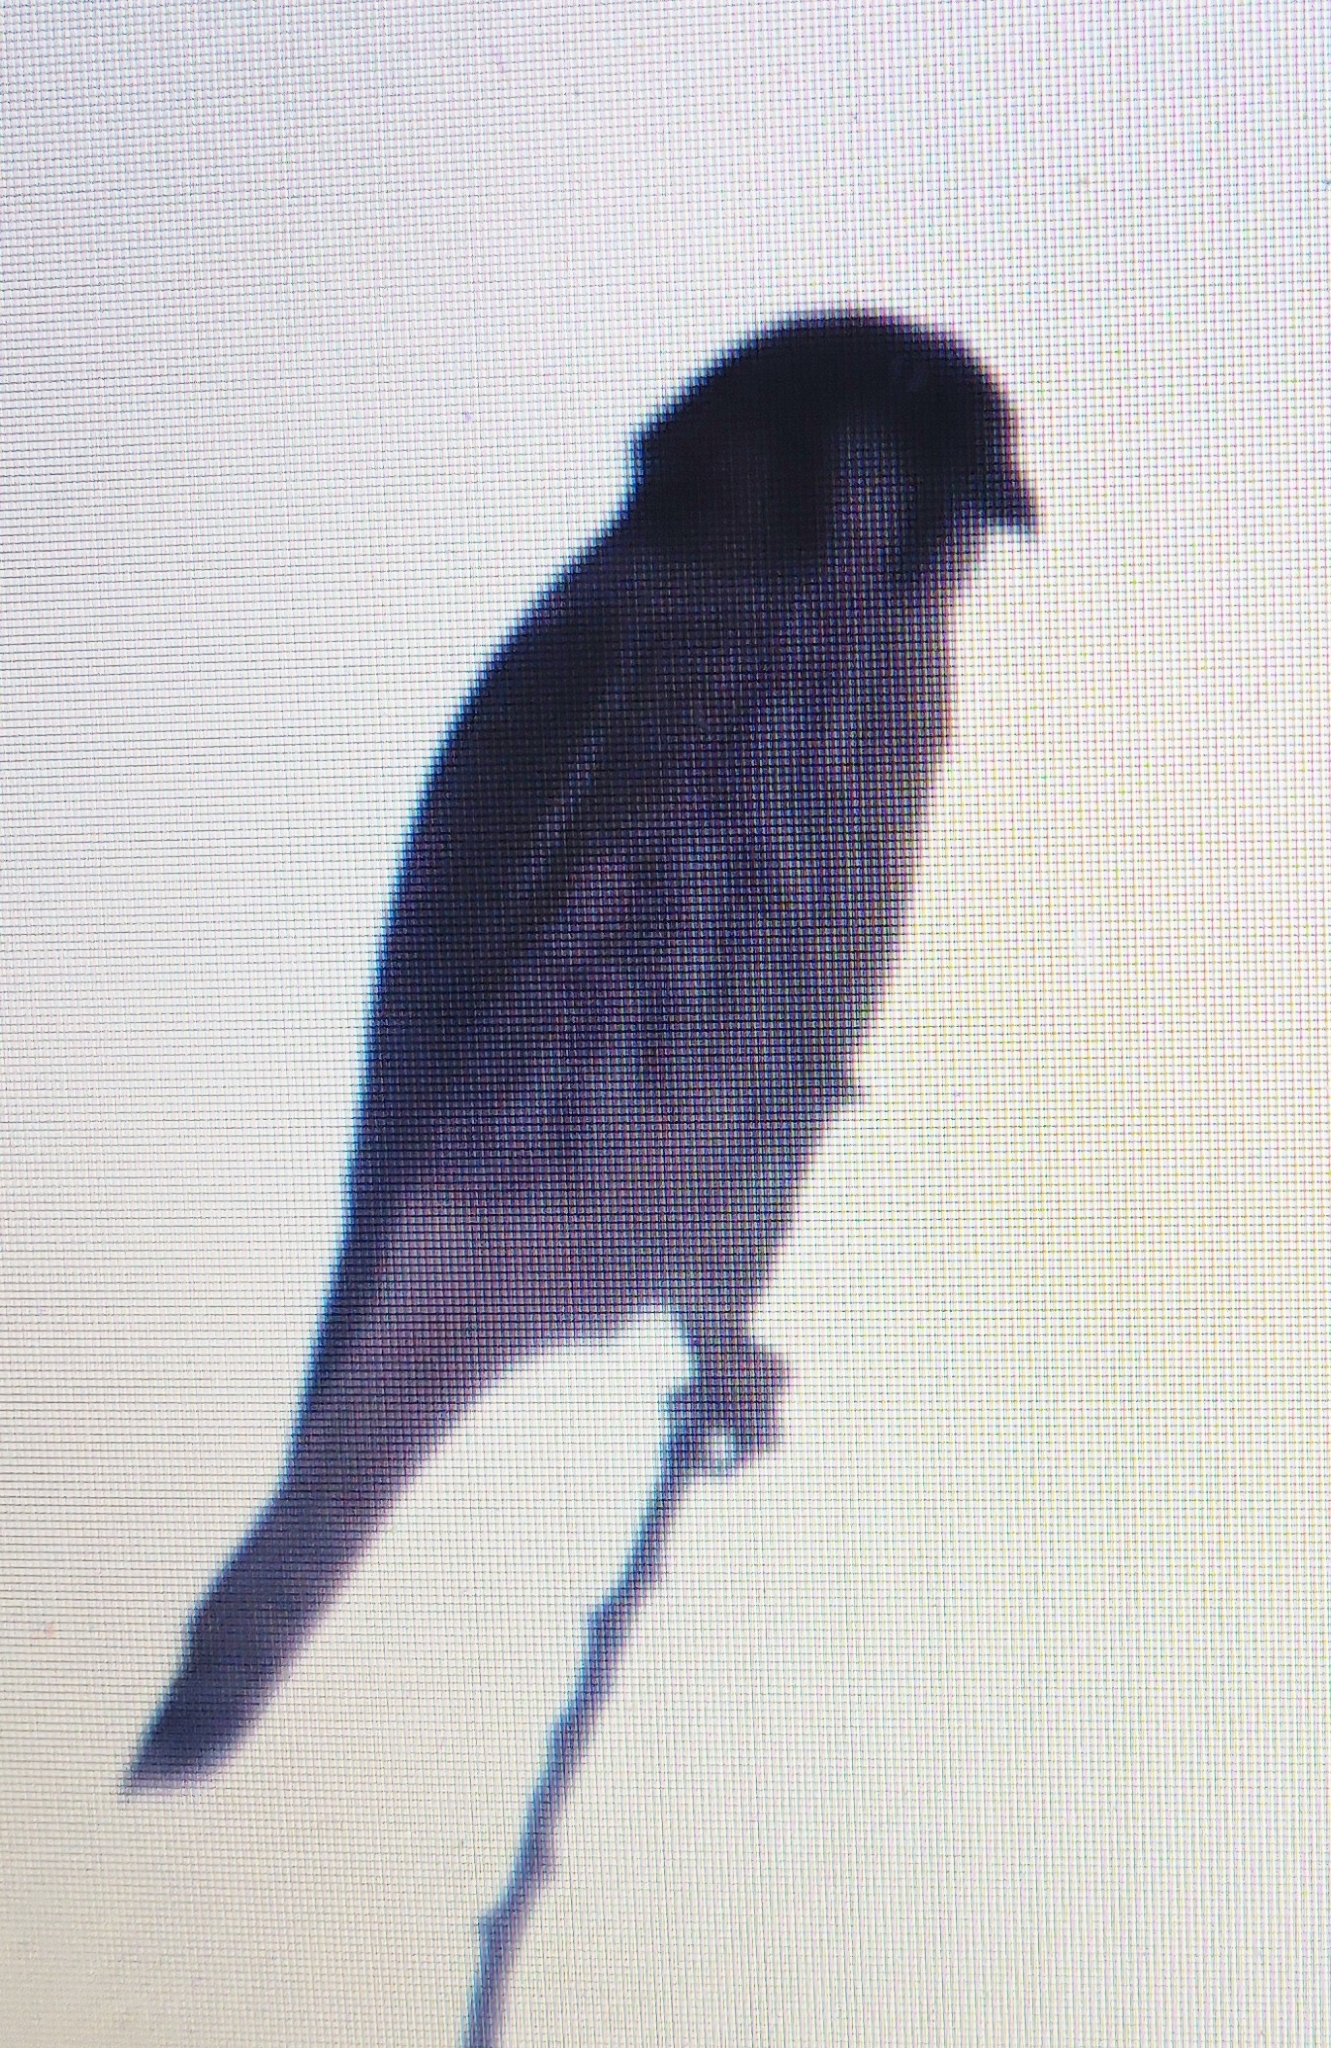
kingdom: Animalia
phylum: Chordata
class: Aves
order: Falconiformes
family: Falconidae
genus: Falco
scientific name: Falco sparverius
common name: American kestrel
